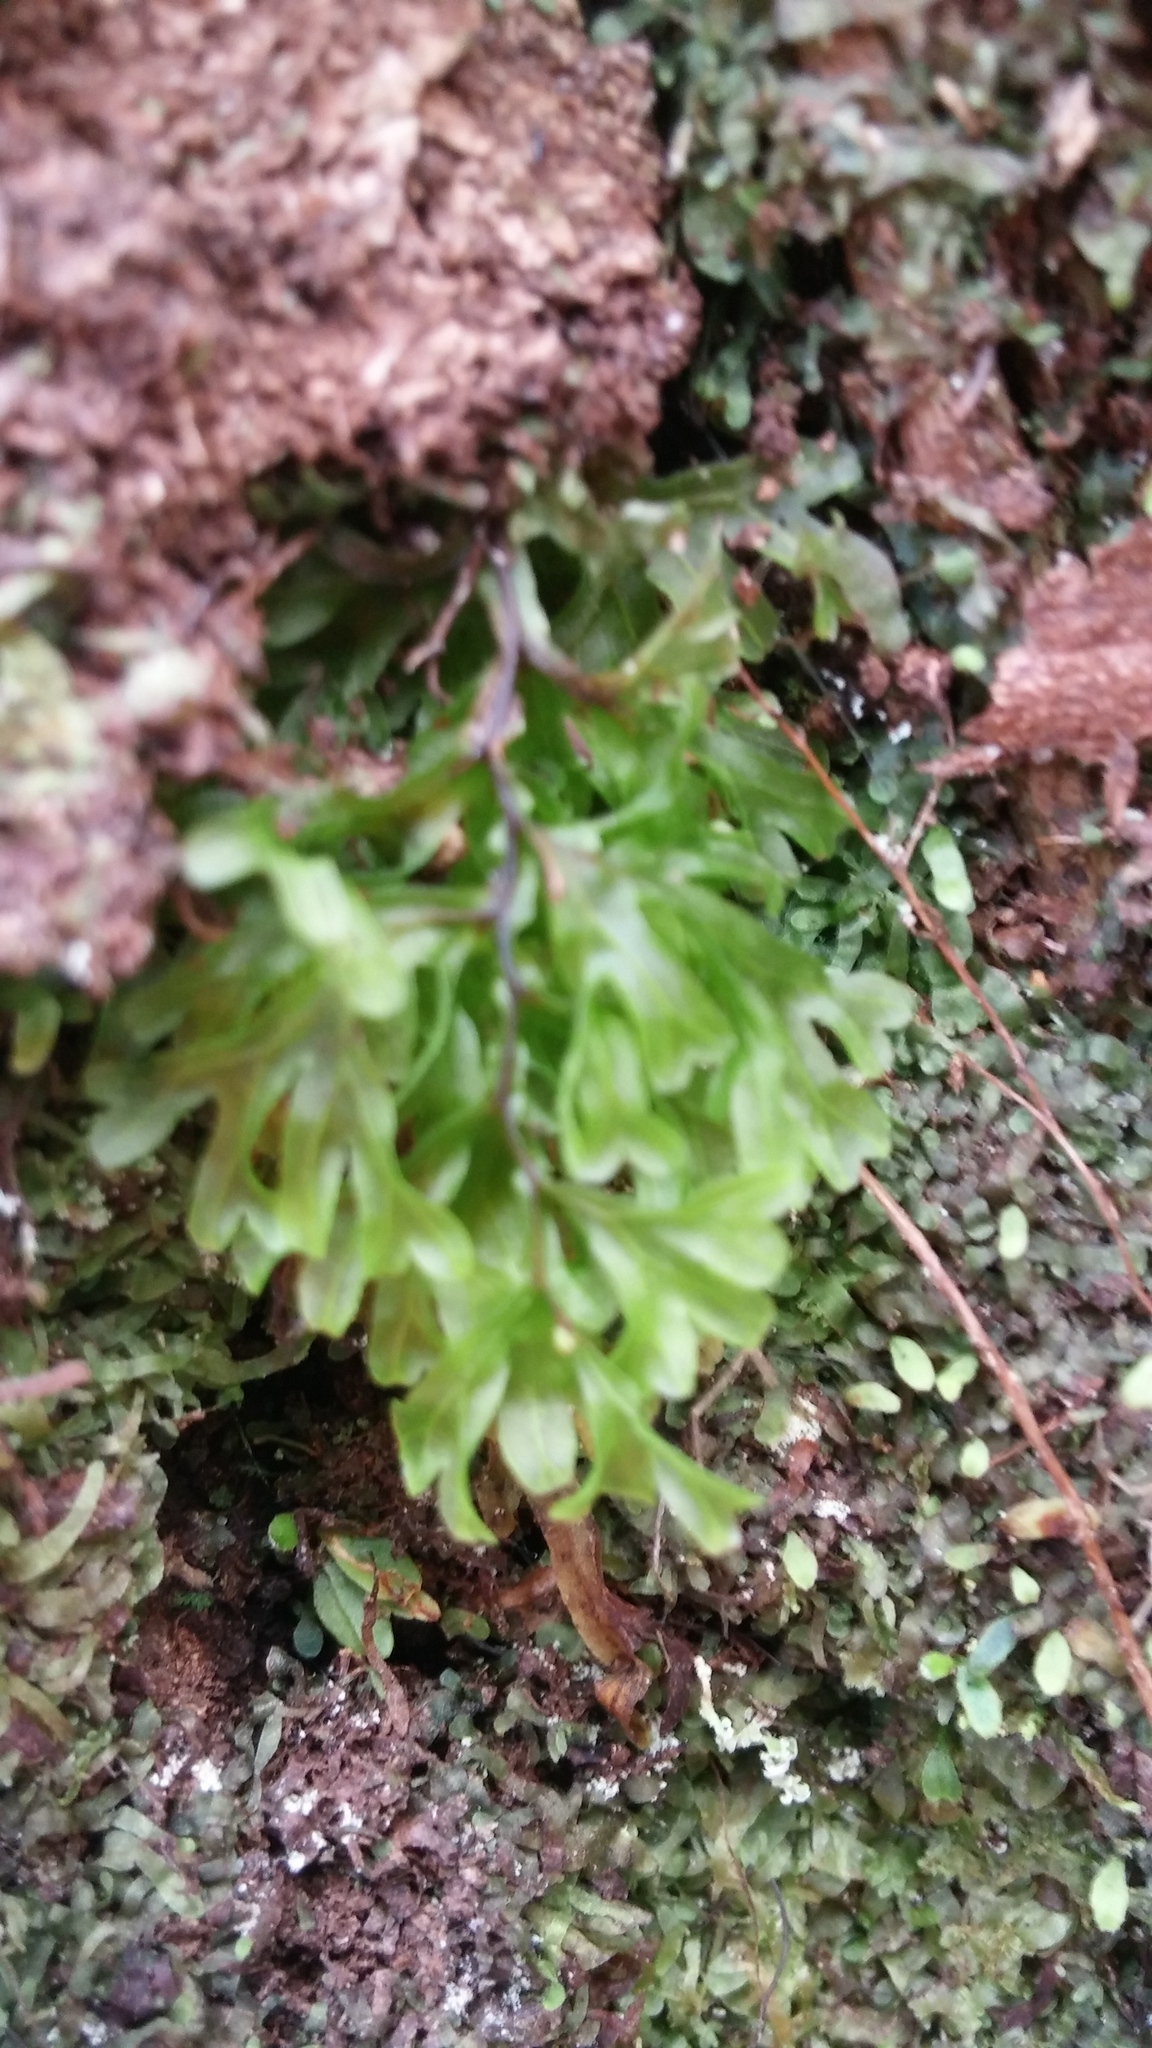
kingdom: Plantae
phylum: Tracheophyta
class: Polypodiopsida
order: Hymenophyllales
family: Hymenophyllaceae
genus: Hymenophyllum
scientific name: Hymenophyllum recurvum
